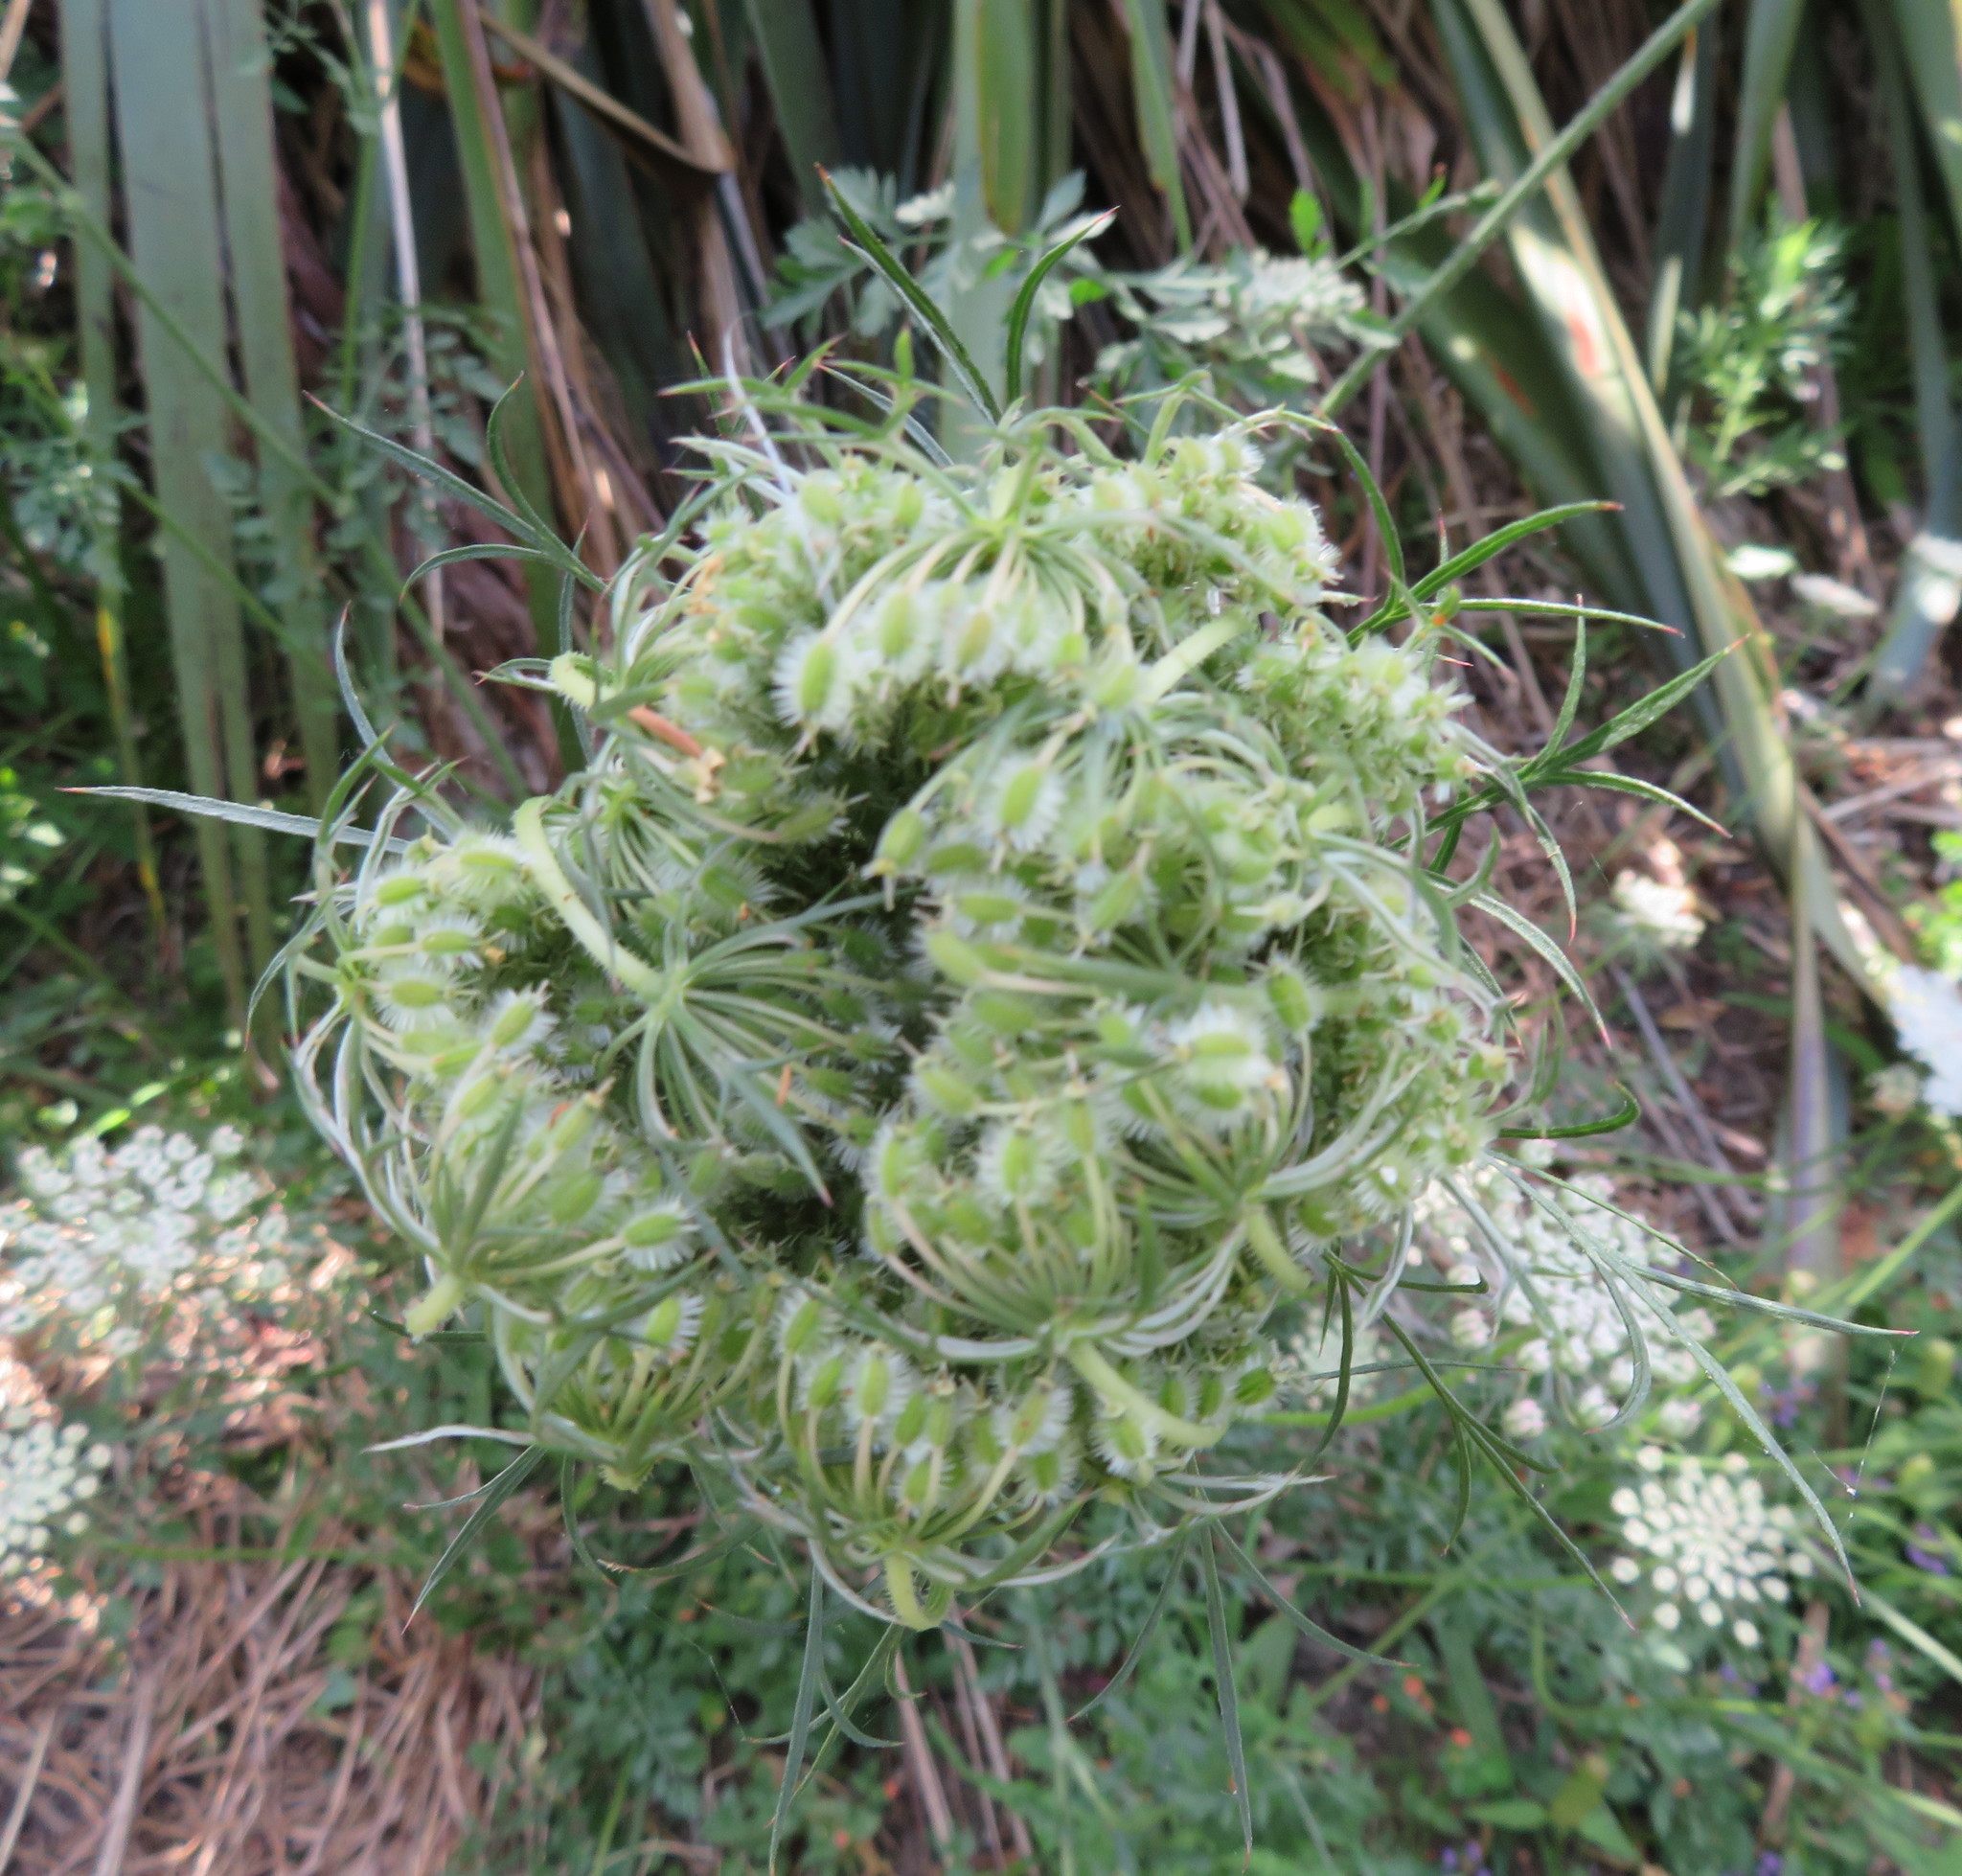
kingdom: Plantae
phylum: Tracheophyta
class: Magnoliopsida
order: Apiales
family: Apiaceae
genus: Daucus
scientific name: Daucus carota
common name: Wild carrot
